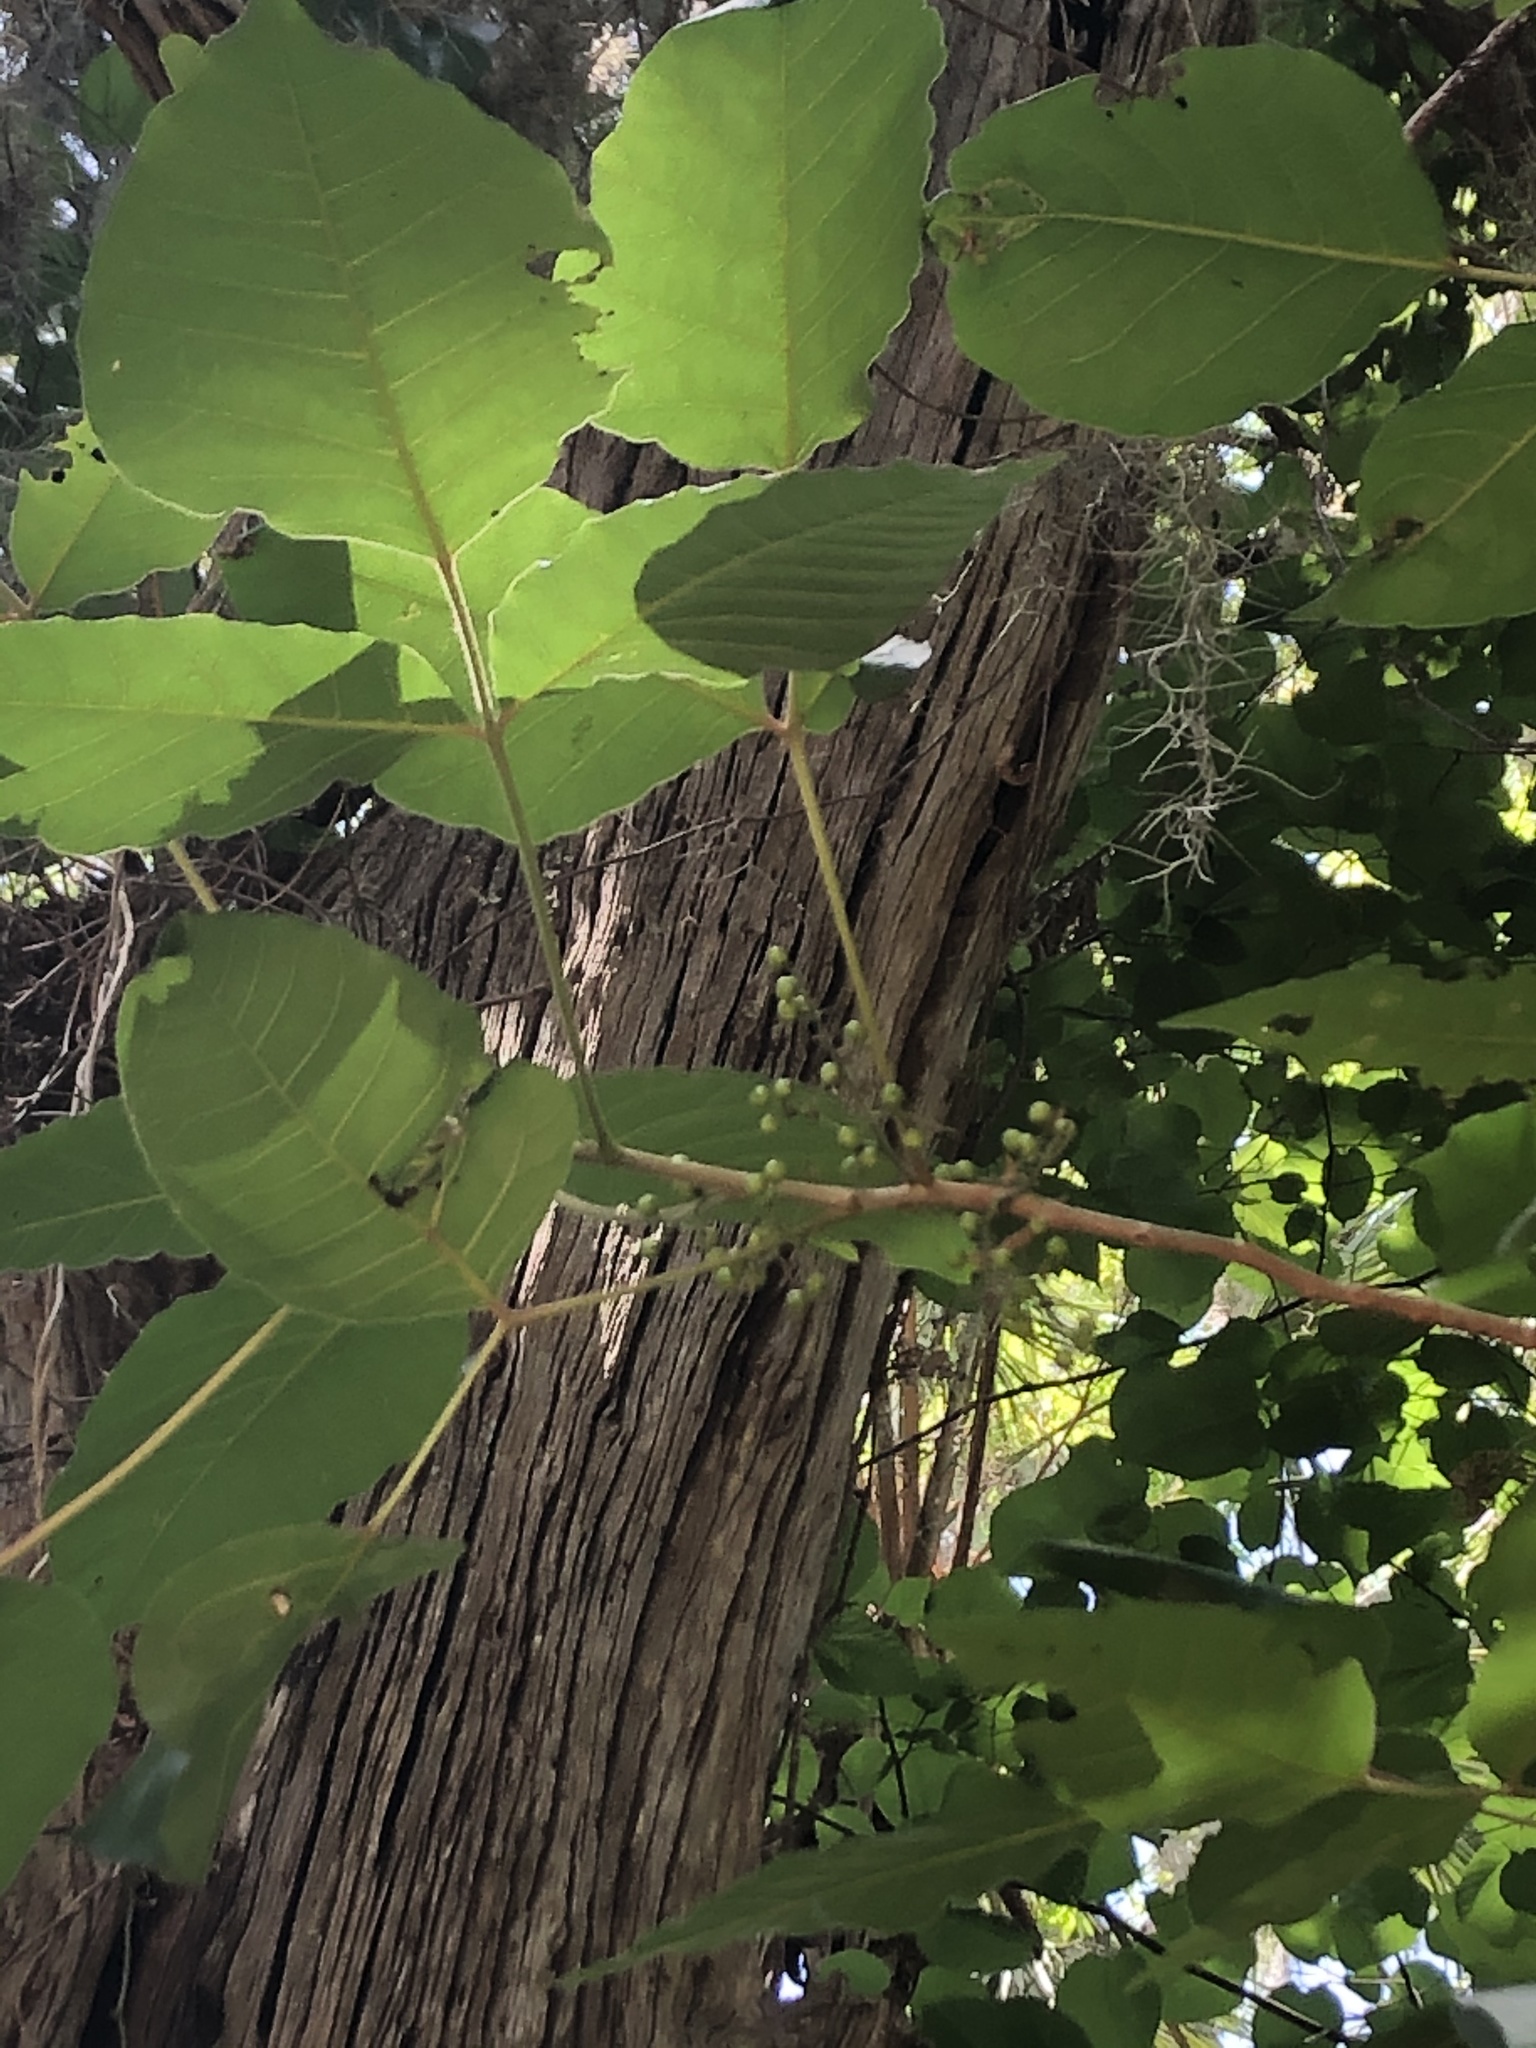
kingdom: Plantae
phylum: Tracheophyta
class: Magnoliopsida
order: Sapindales
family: Anacardiaceae
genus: Toxicodendron
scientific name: Toxicodendron radicans
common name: Poison ivy
